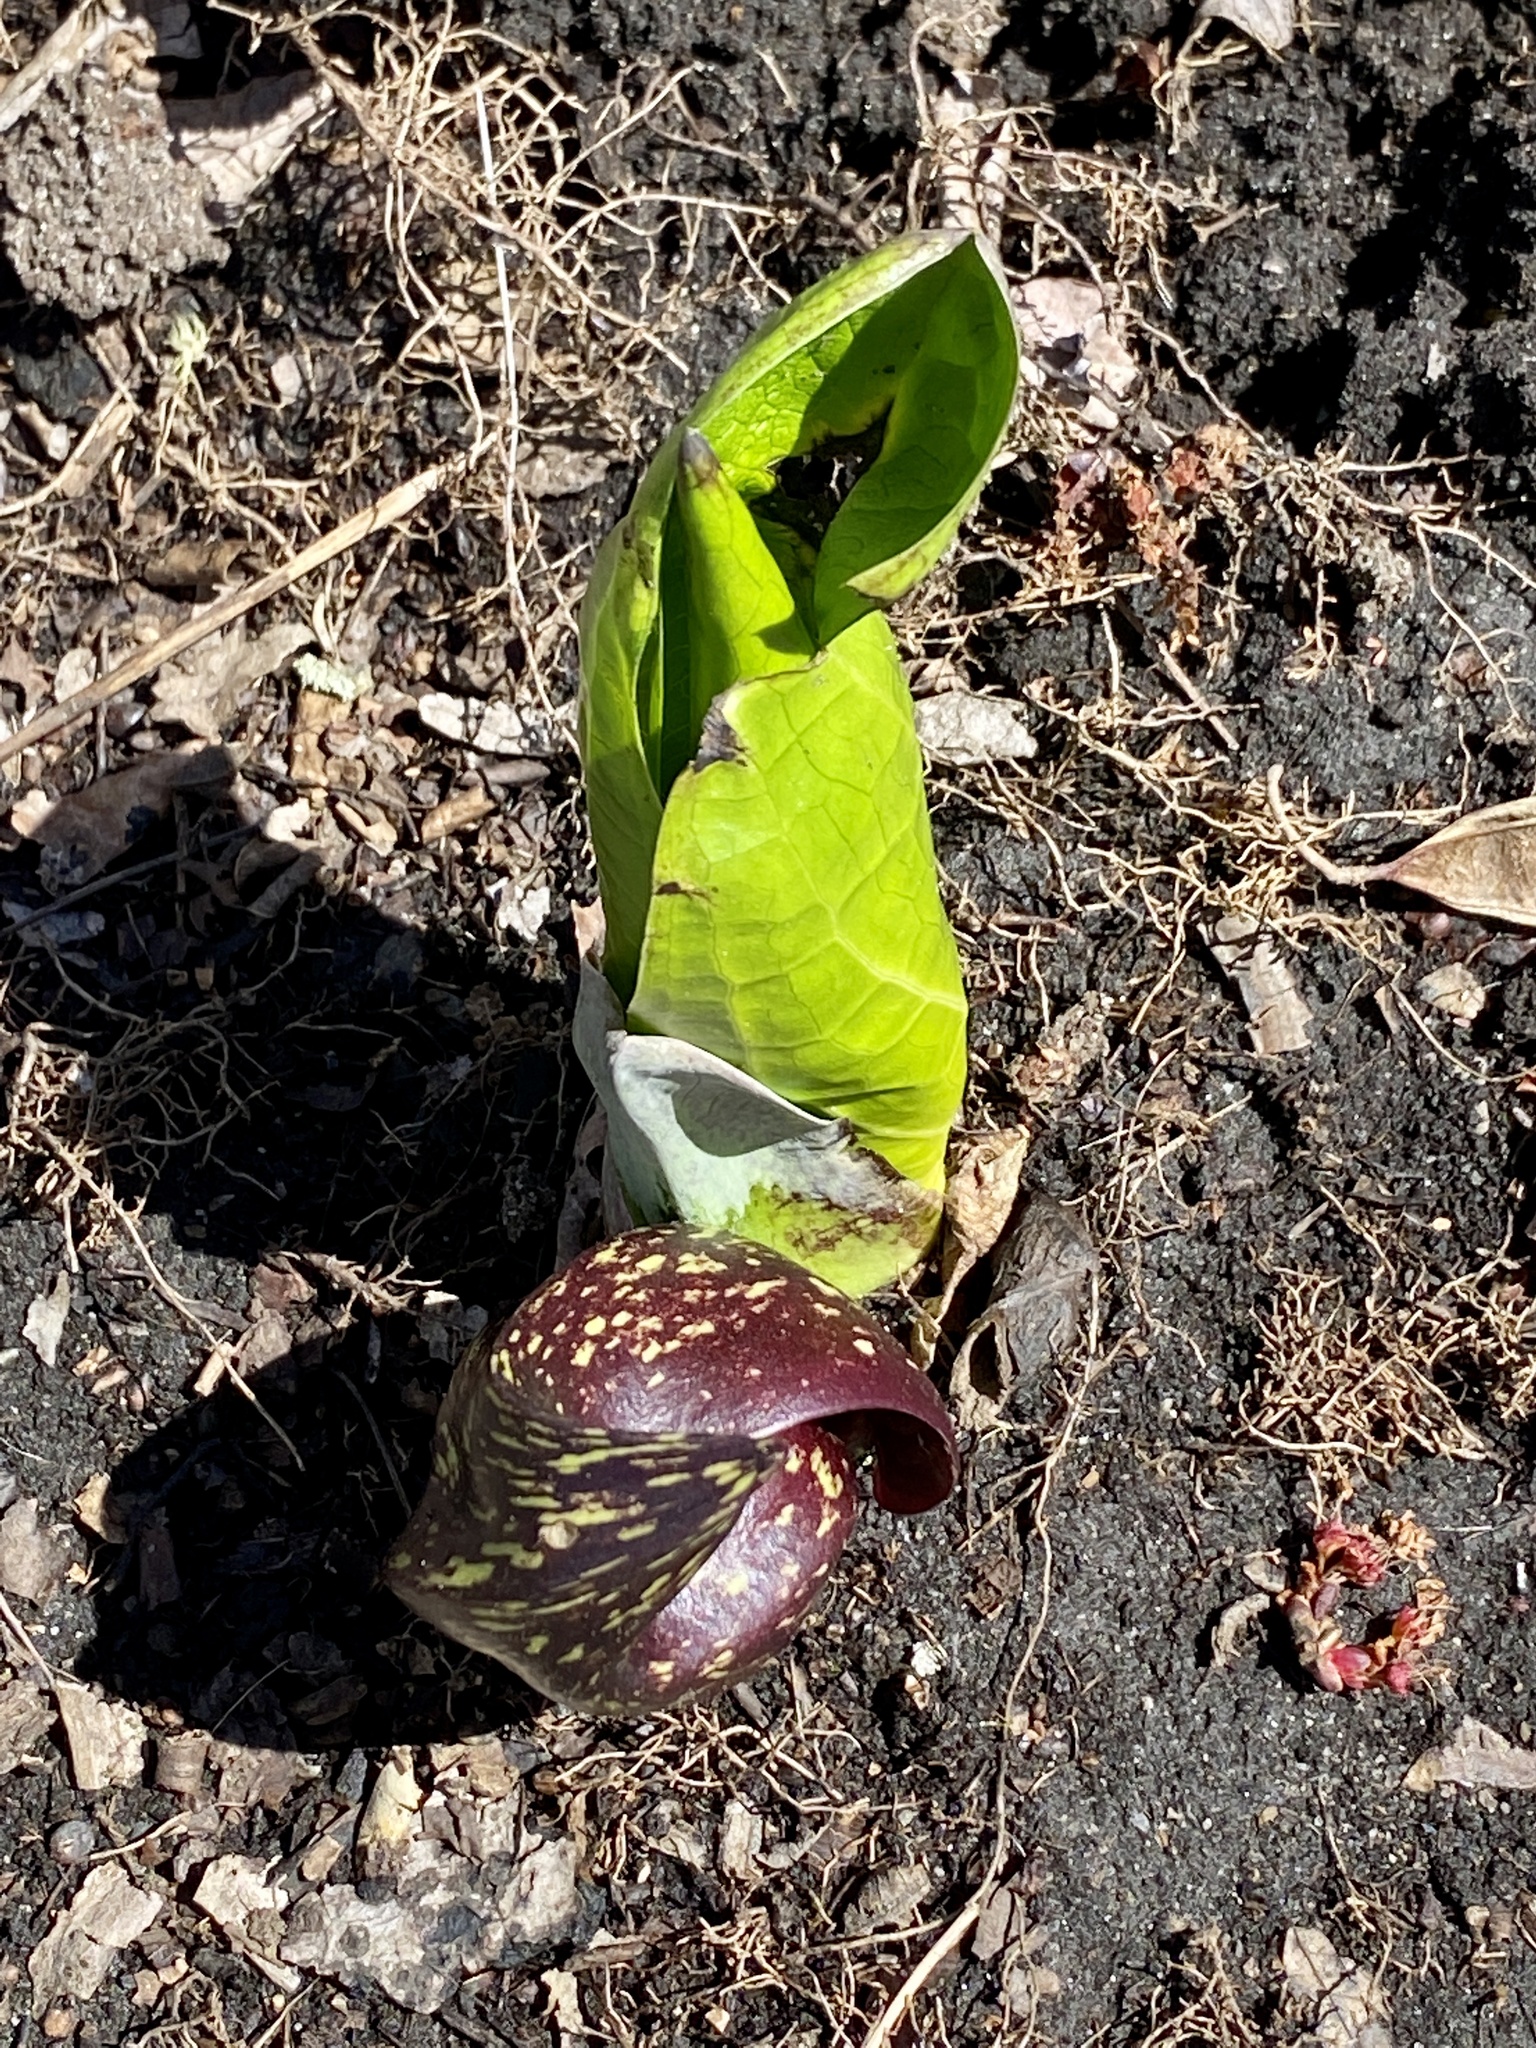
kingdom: Plantae
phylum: Tracheophyta
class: Liliopsida
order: Alismatales
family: Araceae
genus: Symplocarpus
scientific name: Symplocarpus foetidus
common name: Eastern skunk cabbage
